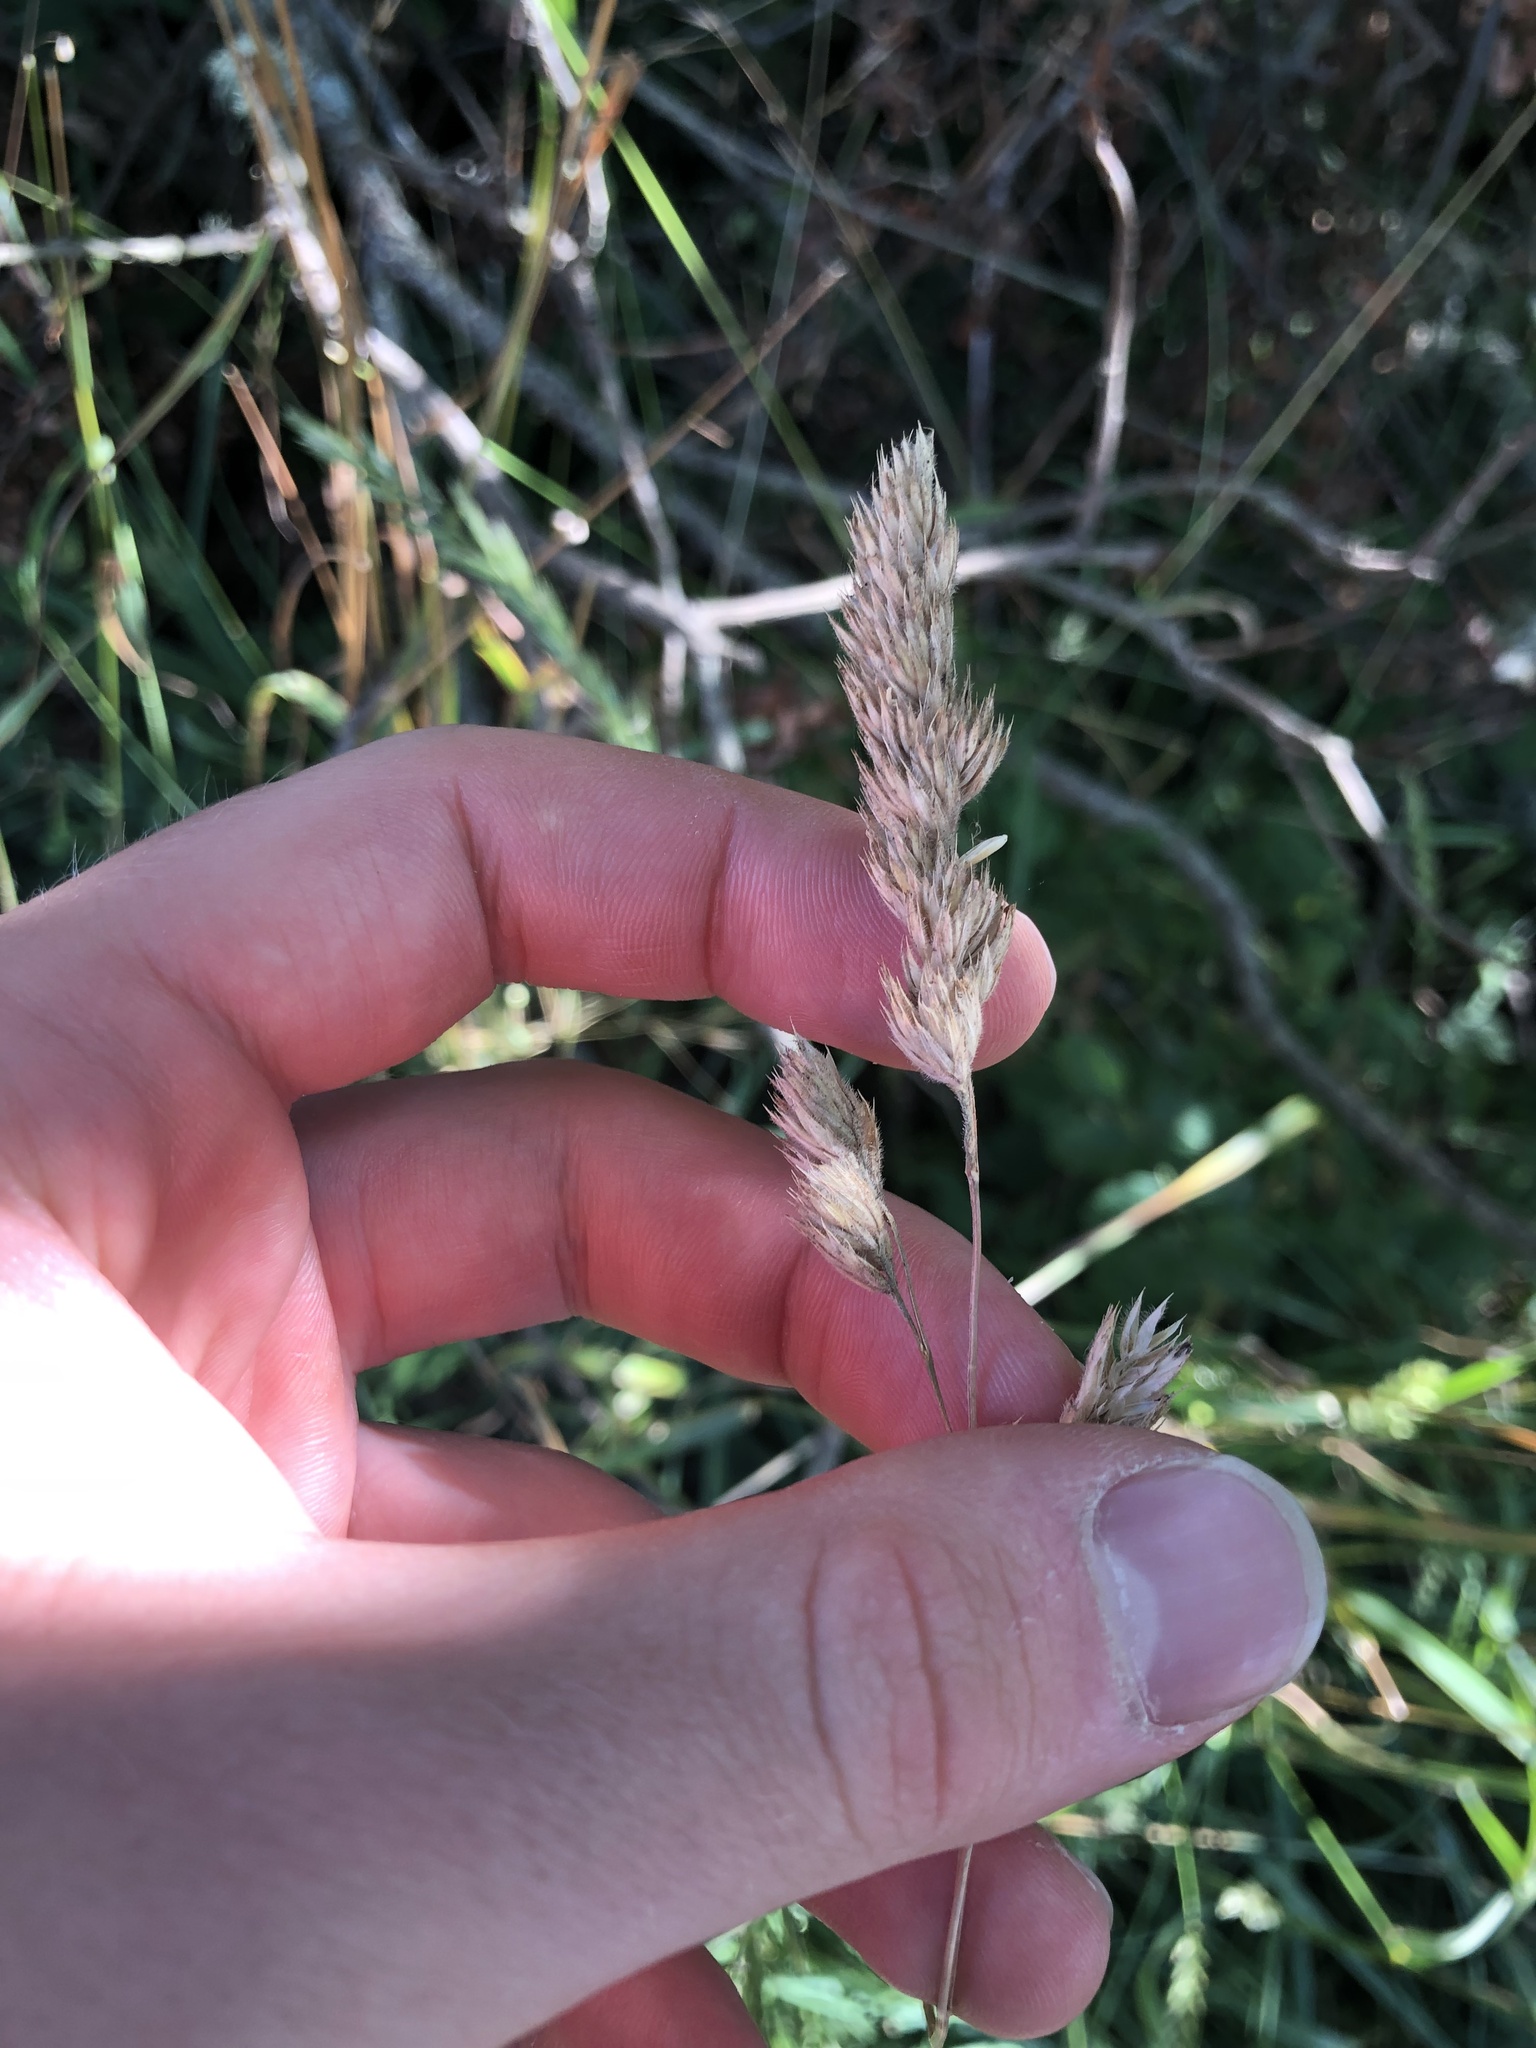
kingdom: Plantae
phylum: Tracheophyta
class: Liliopsida
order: Poales
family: Poaceae
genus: Dactylis
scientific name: Dactylis glomerata
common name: Orchardgrass
